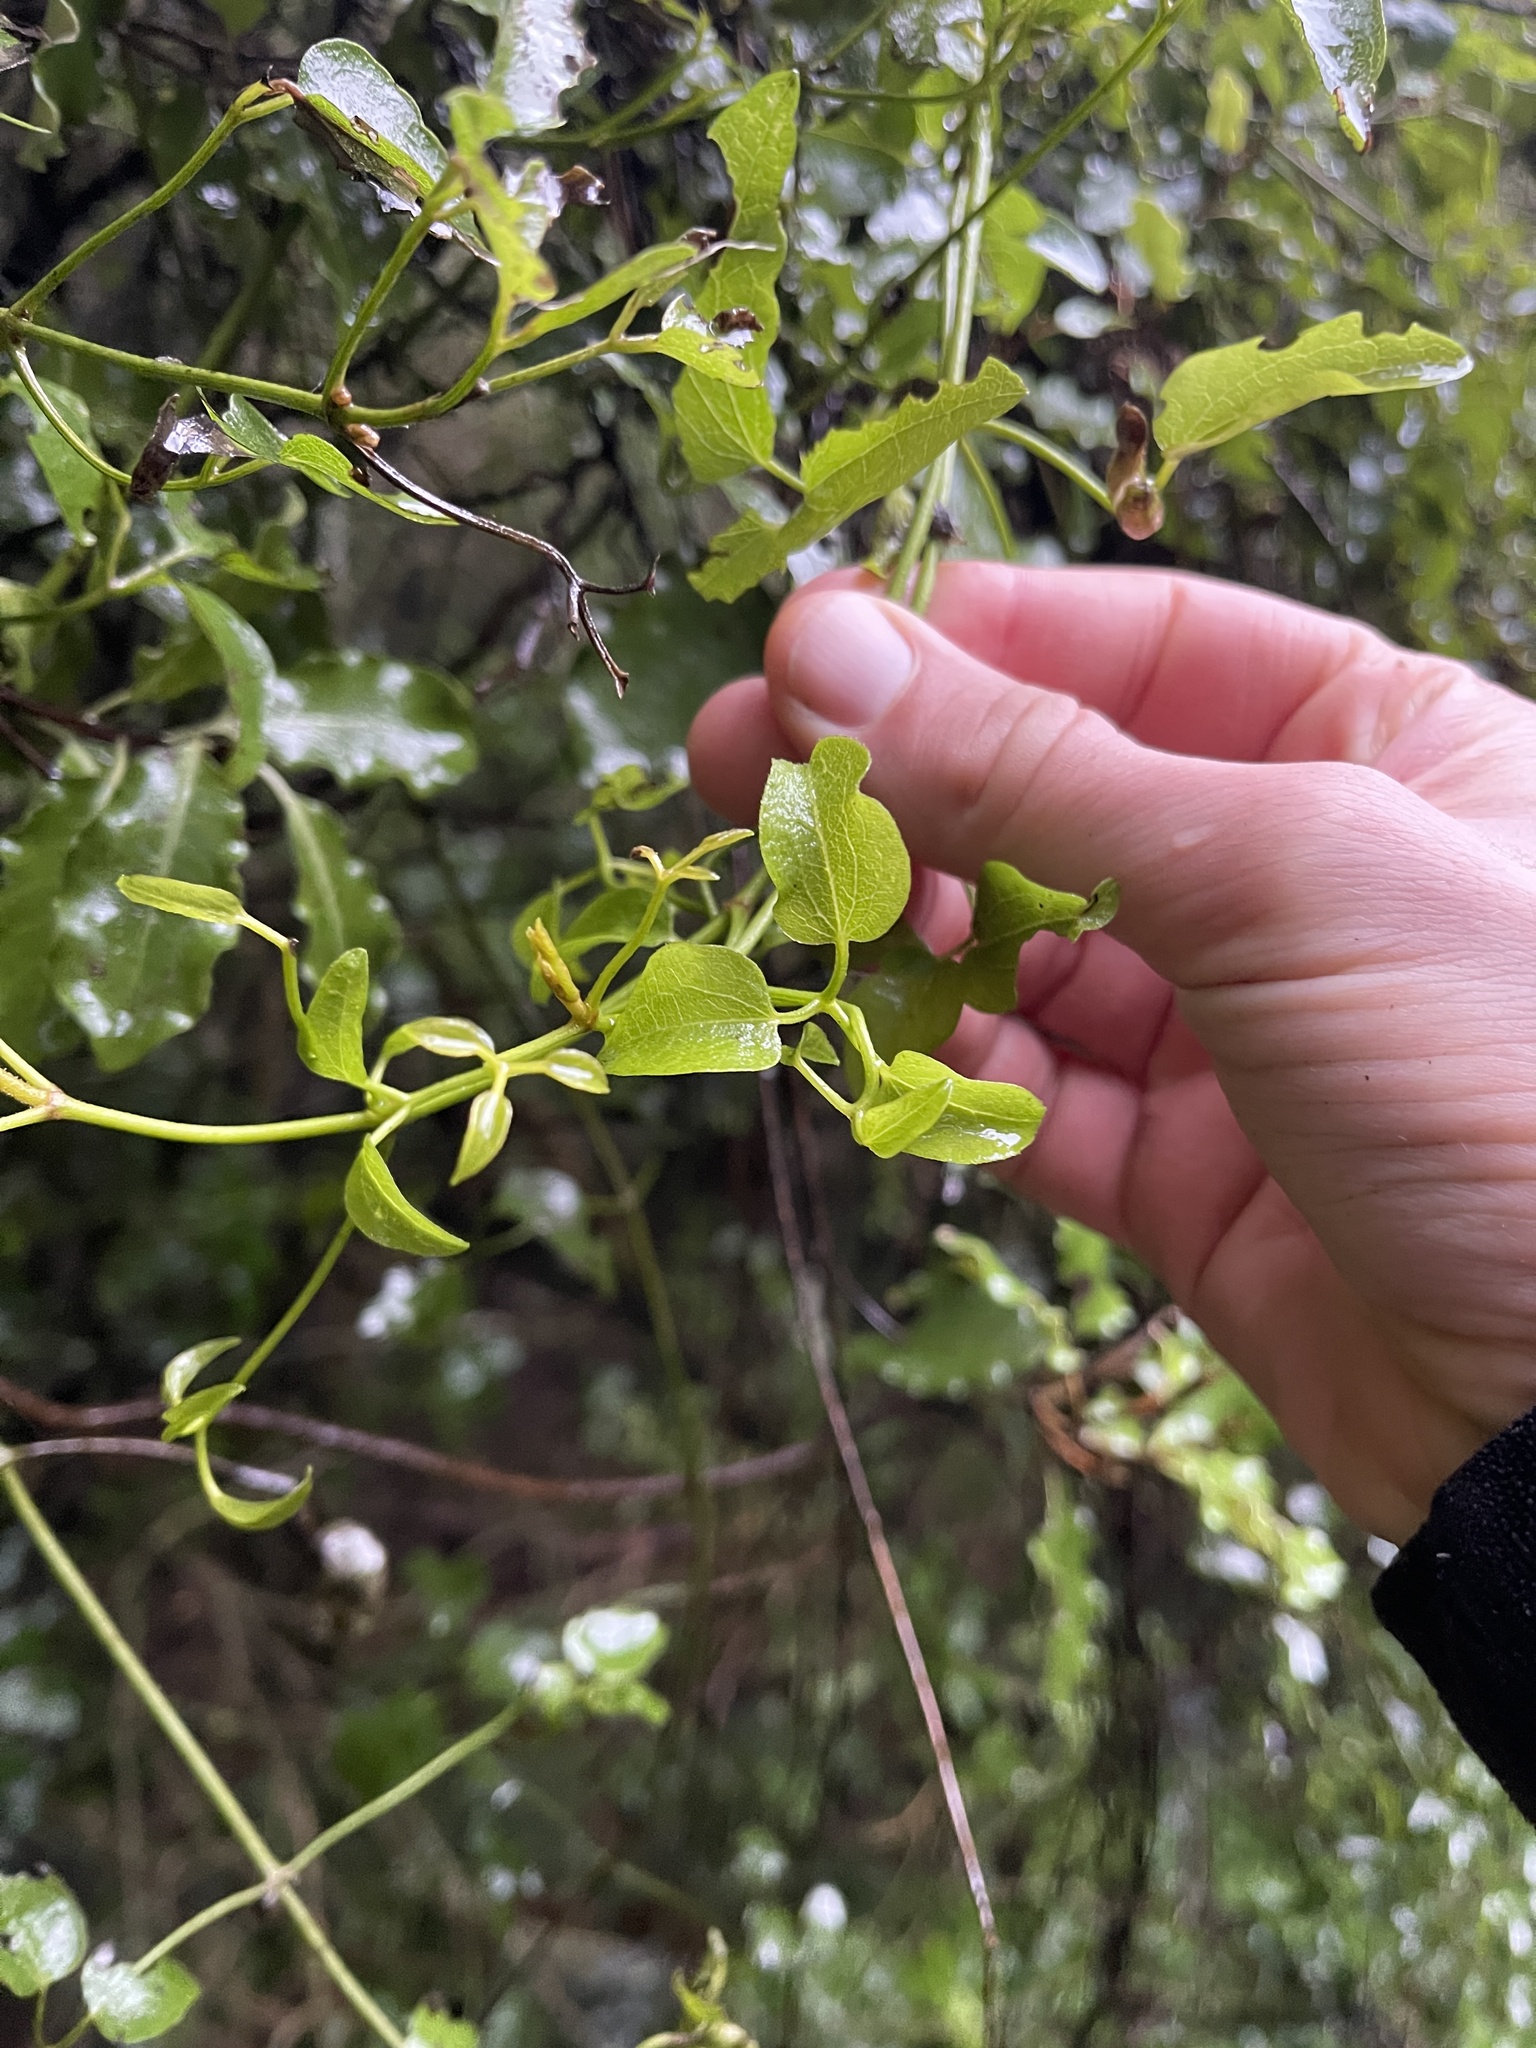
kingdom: Plantae
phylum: Tracheophyta
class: Magnoliopsida
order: Ranunculales
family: Ranunculaceae
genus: Clematis
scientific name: Clematis foetida
